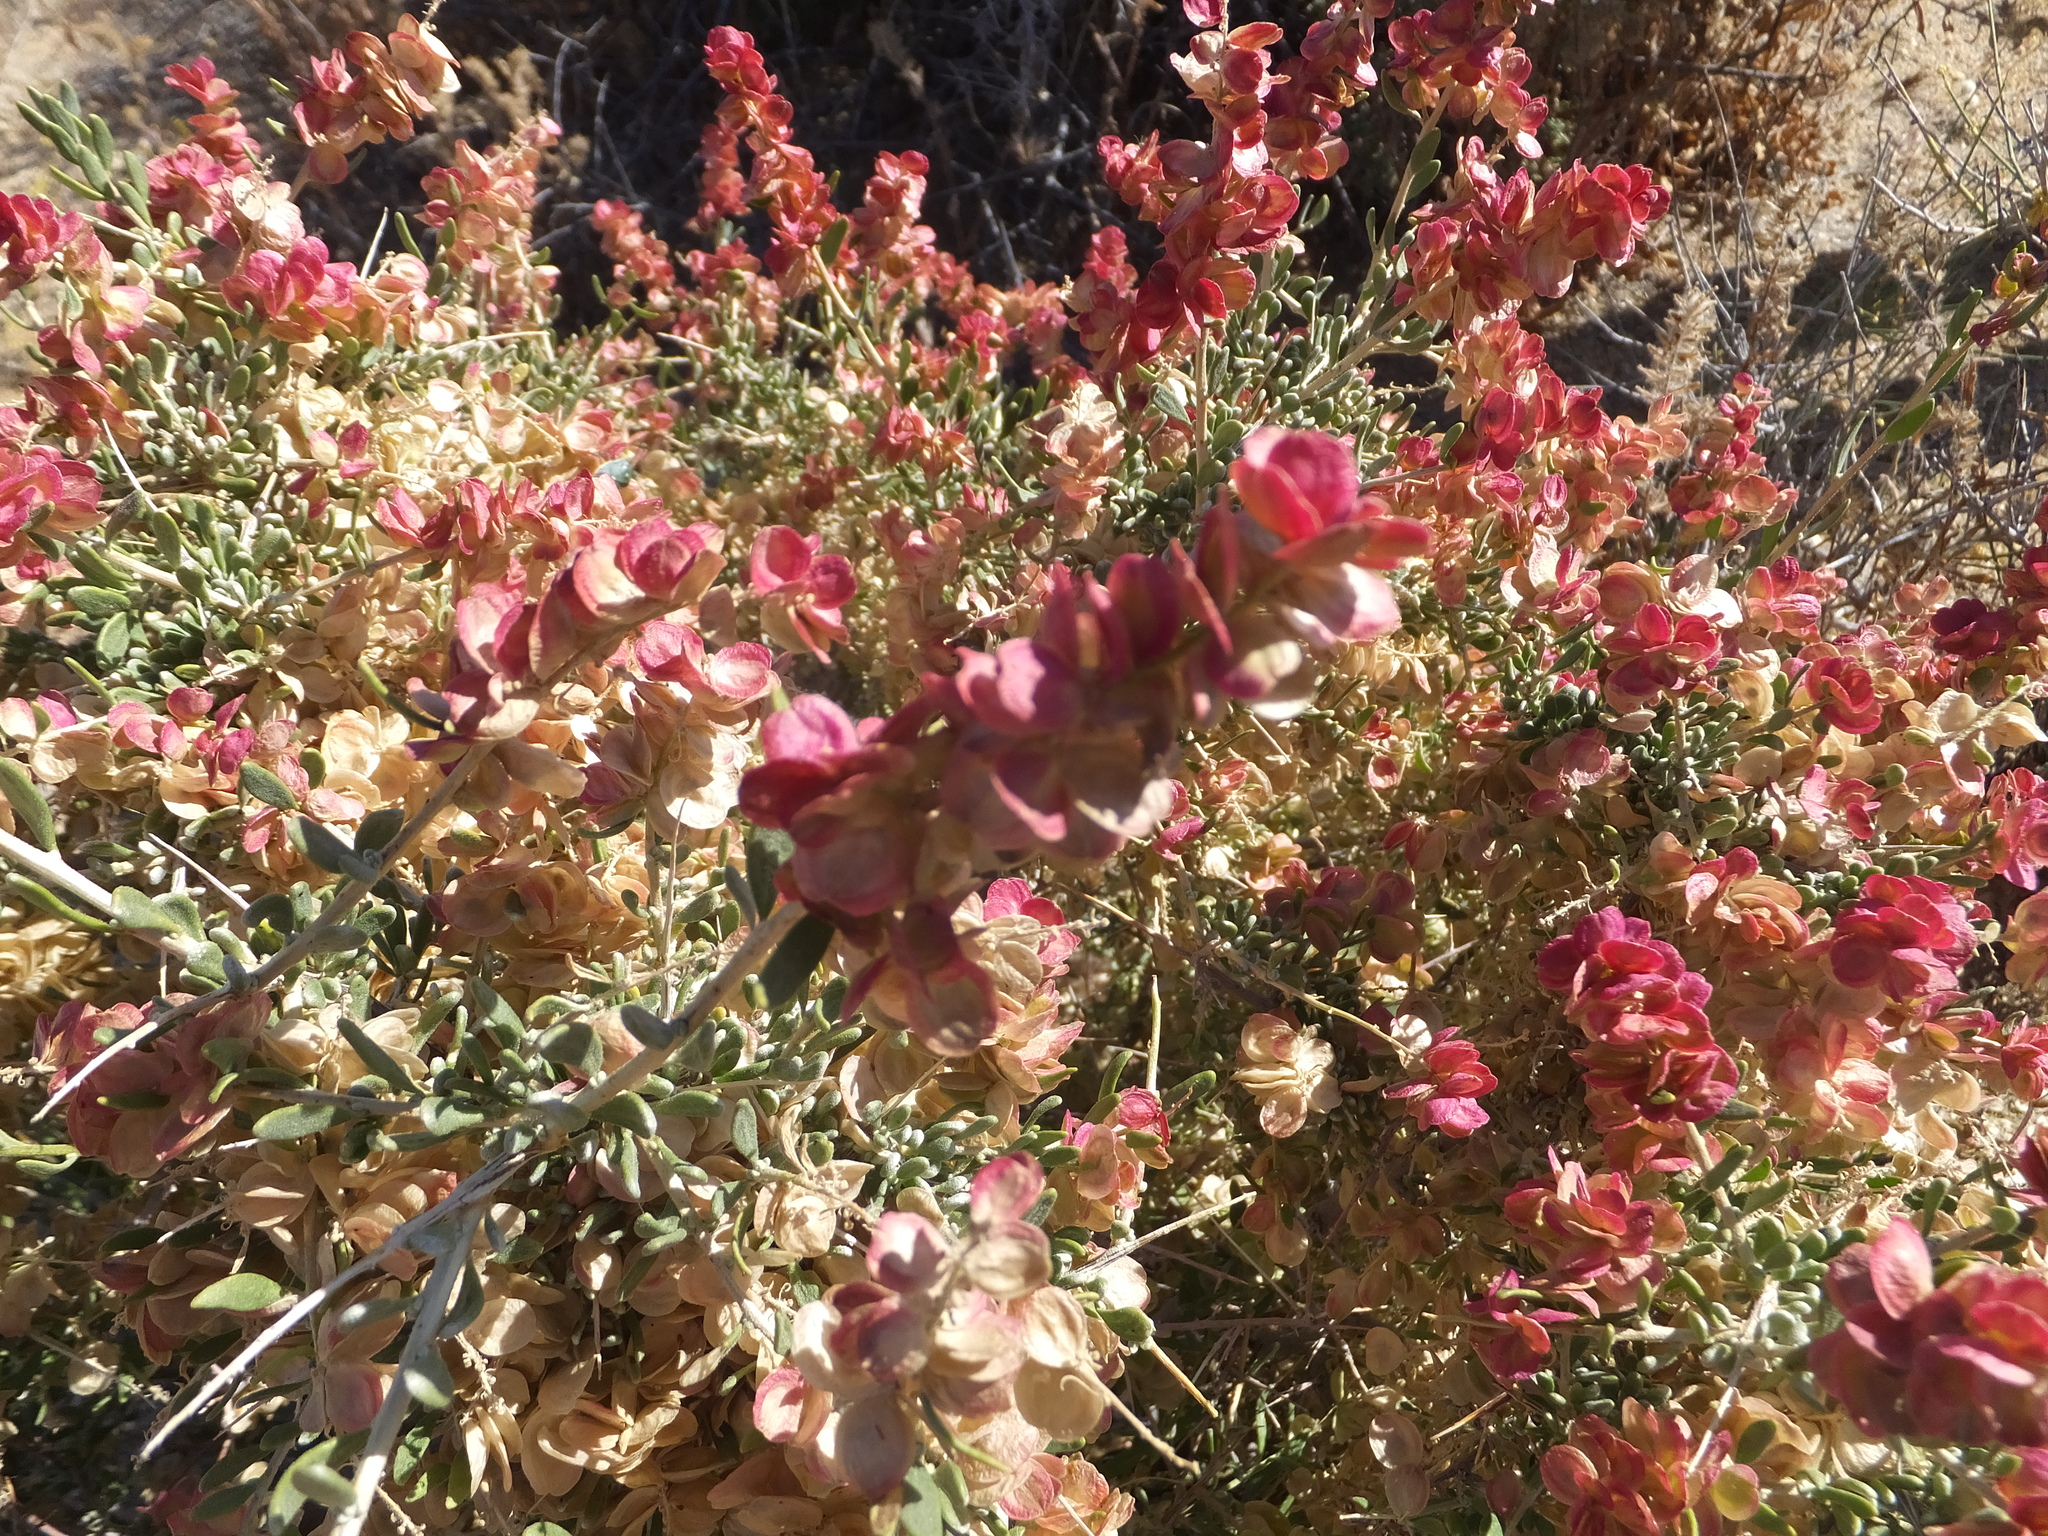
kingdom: Plantae
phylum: Tracheophyta
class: Magnoliopsida
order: Caryophyllales
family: Amaranthaceae
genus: Grayia
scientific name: Grayia spinosa
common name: Spiny hopsage
